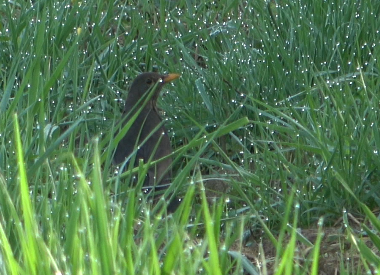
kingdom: Animalia
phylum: Chordata
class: Aves
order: Passeriformes
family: Turdidae
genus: Turdus
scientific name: Turdus merula
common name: Common blackbird
